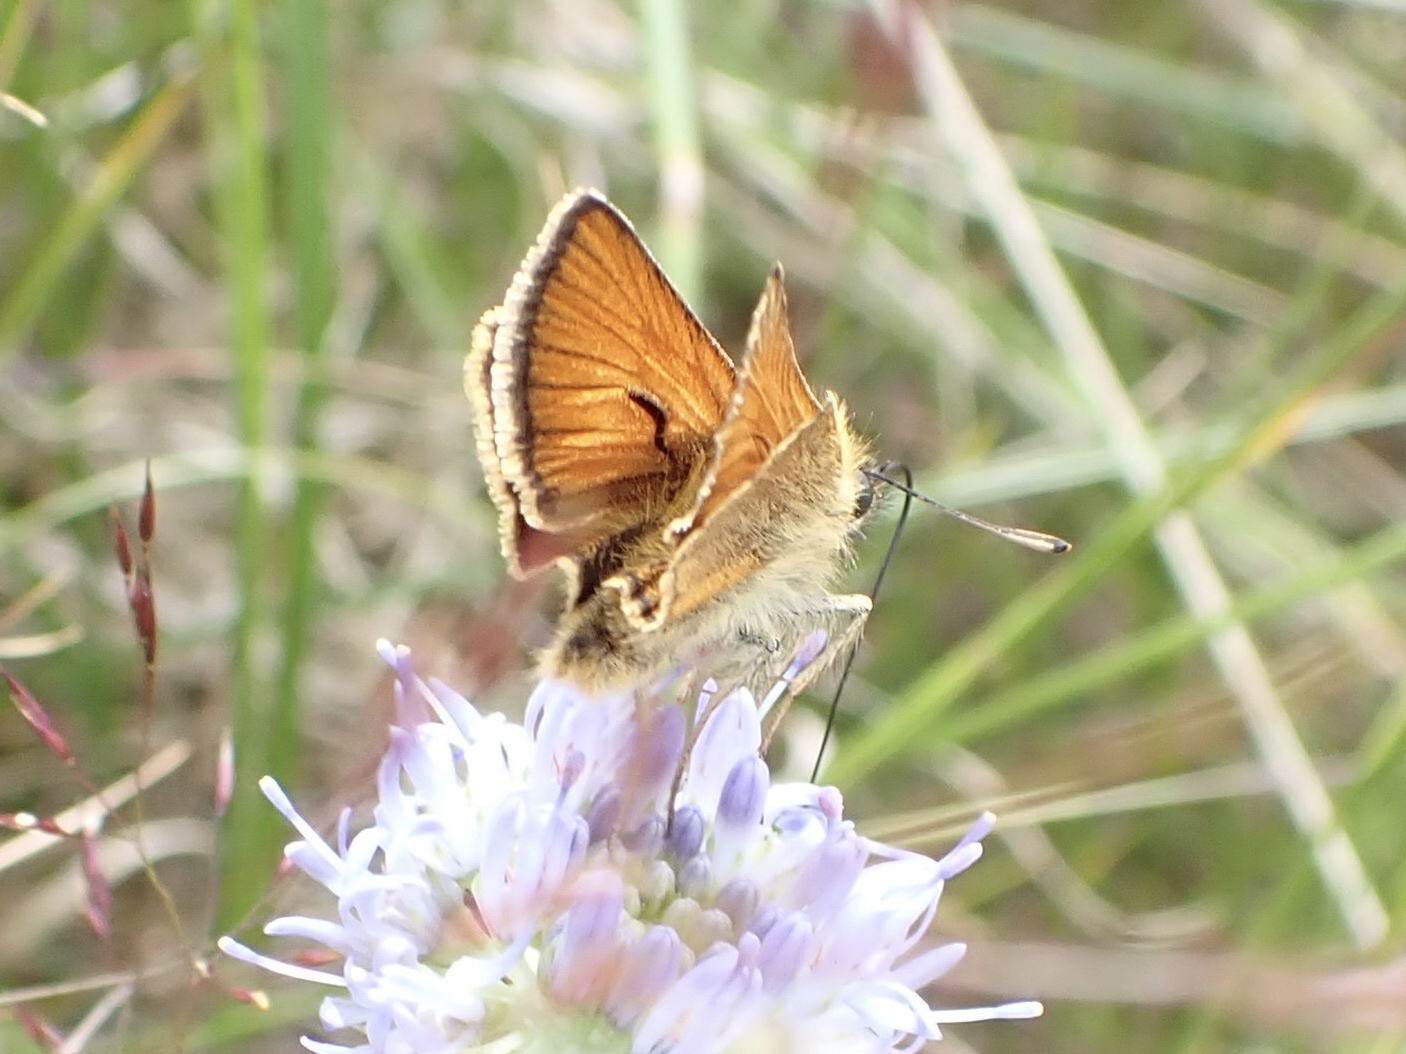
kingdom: Animalia
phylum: Arthropoda
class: Insecta
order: Lepidoptera
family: Hesperiidae
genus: Thymelicus
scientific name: Thymelicus sylvestris
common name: Small skipper
